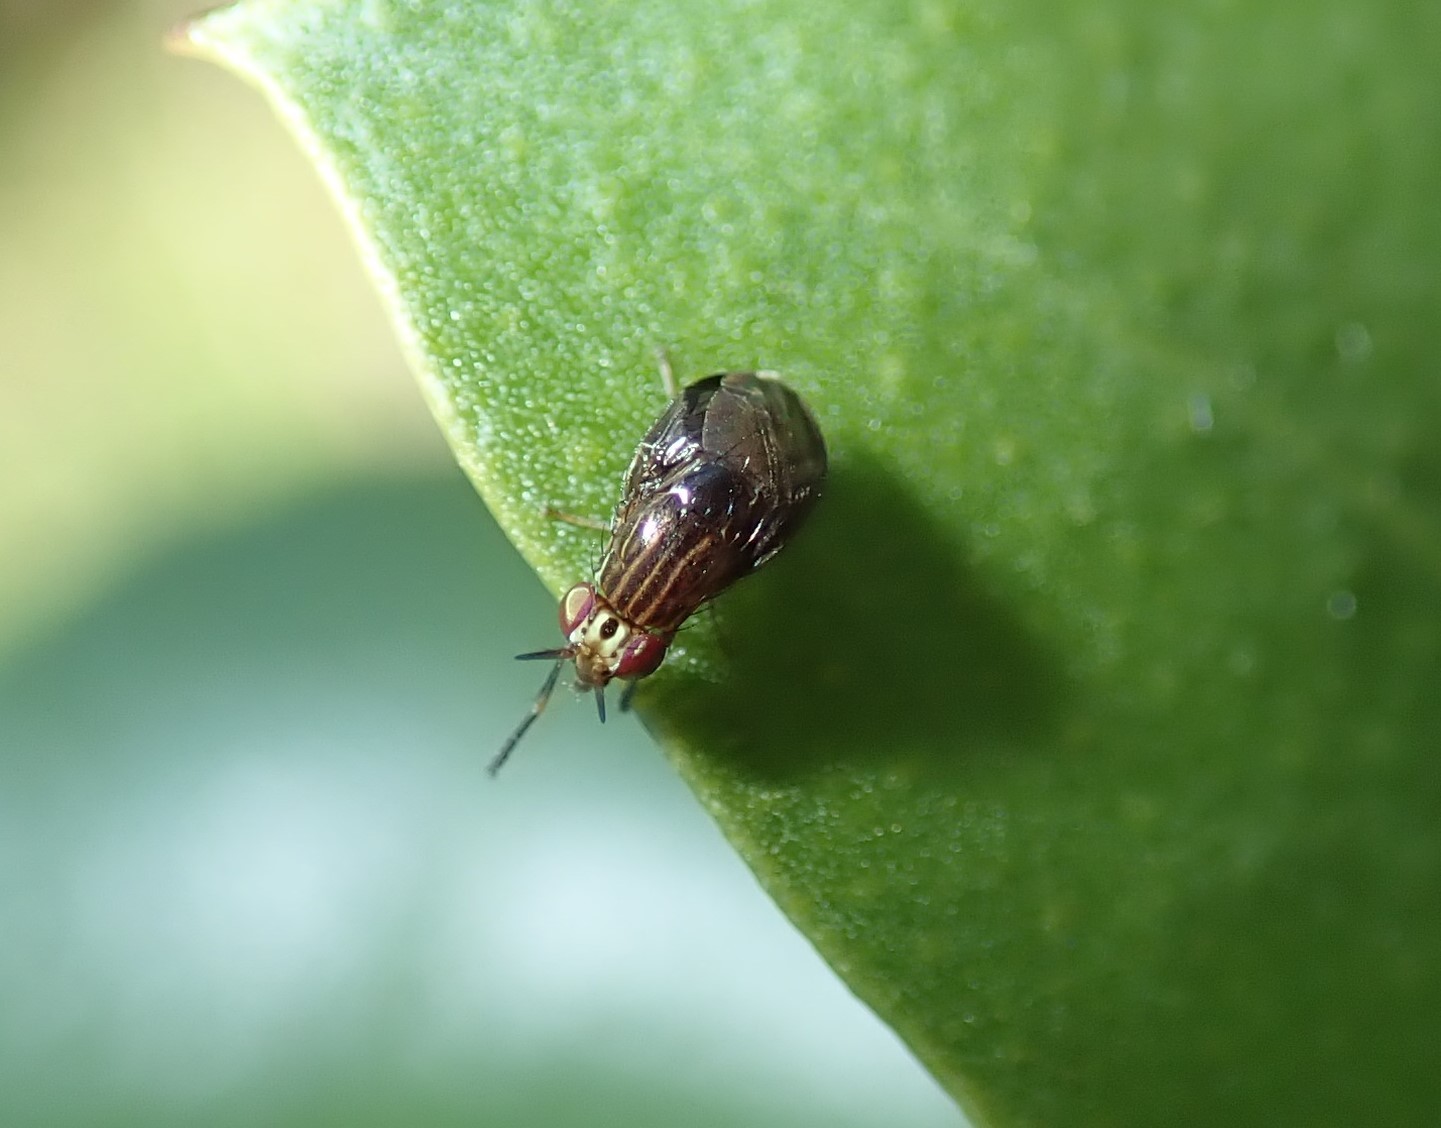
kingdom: Animalia
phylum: Arthropoda
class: Insecta
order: Diptera
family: Lauxaniidae
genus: Steganopsis
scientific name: Steganopsis melanogaster
